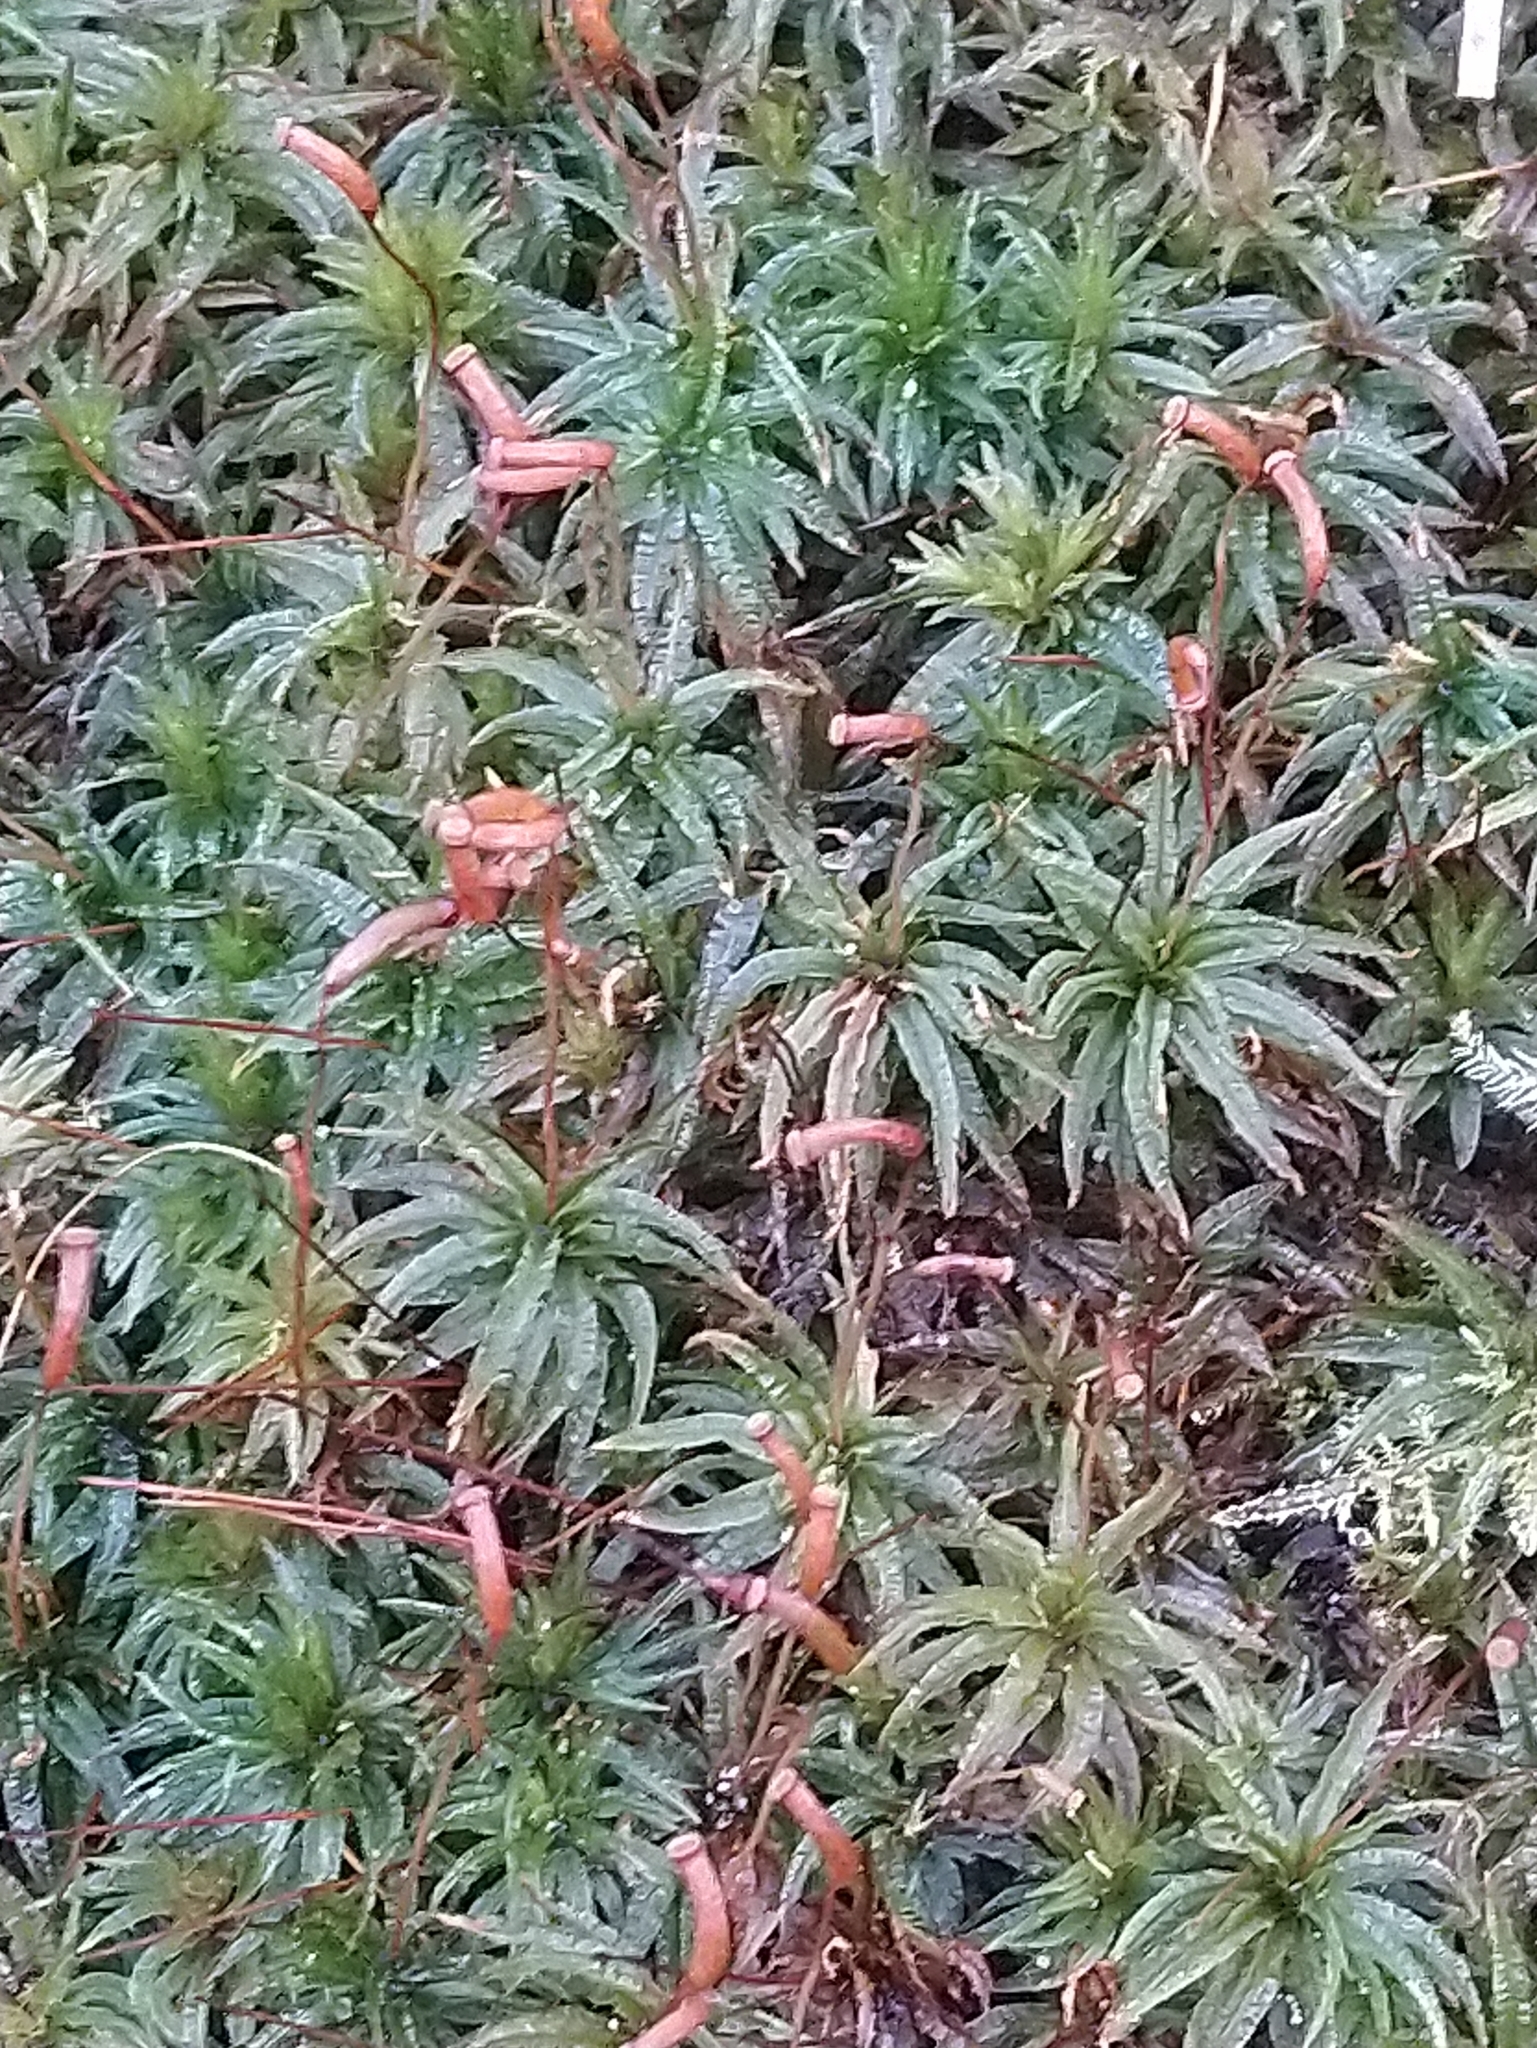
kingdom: Plantae
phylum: Bryophyta
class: Polytrichopsida
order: Polytrichales
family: Polytrichaceae
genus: Atrichum
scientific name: Atrichum undulatum
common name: Common smoothcap
